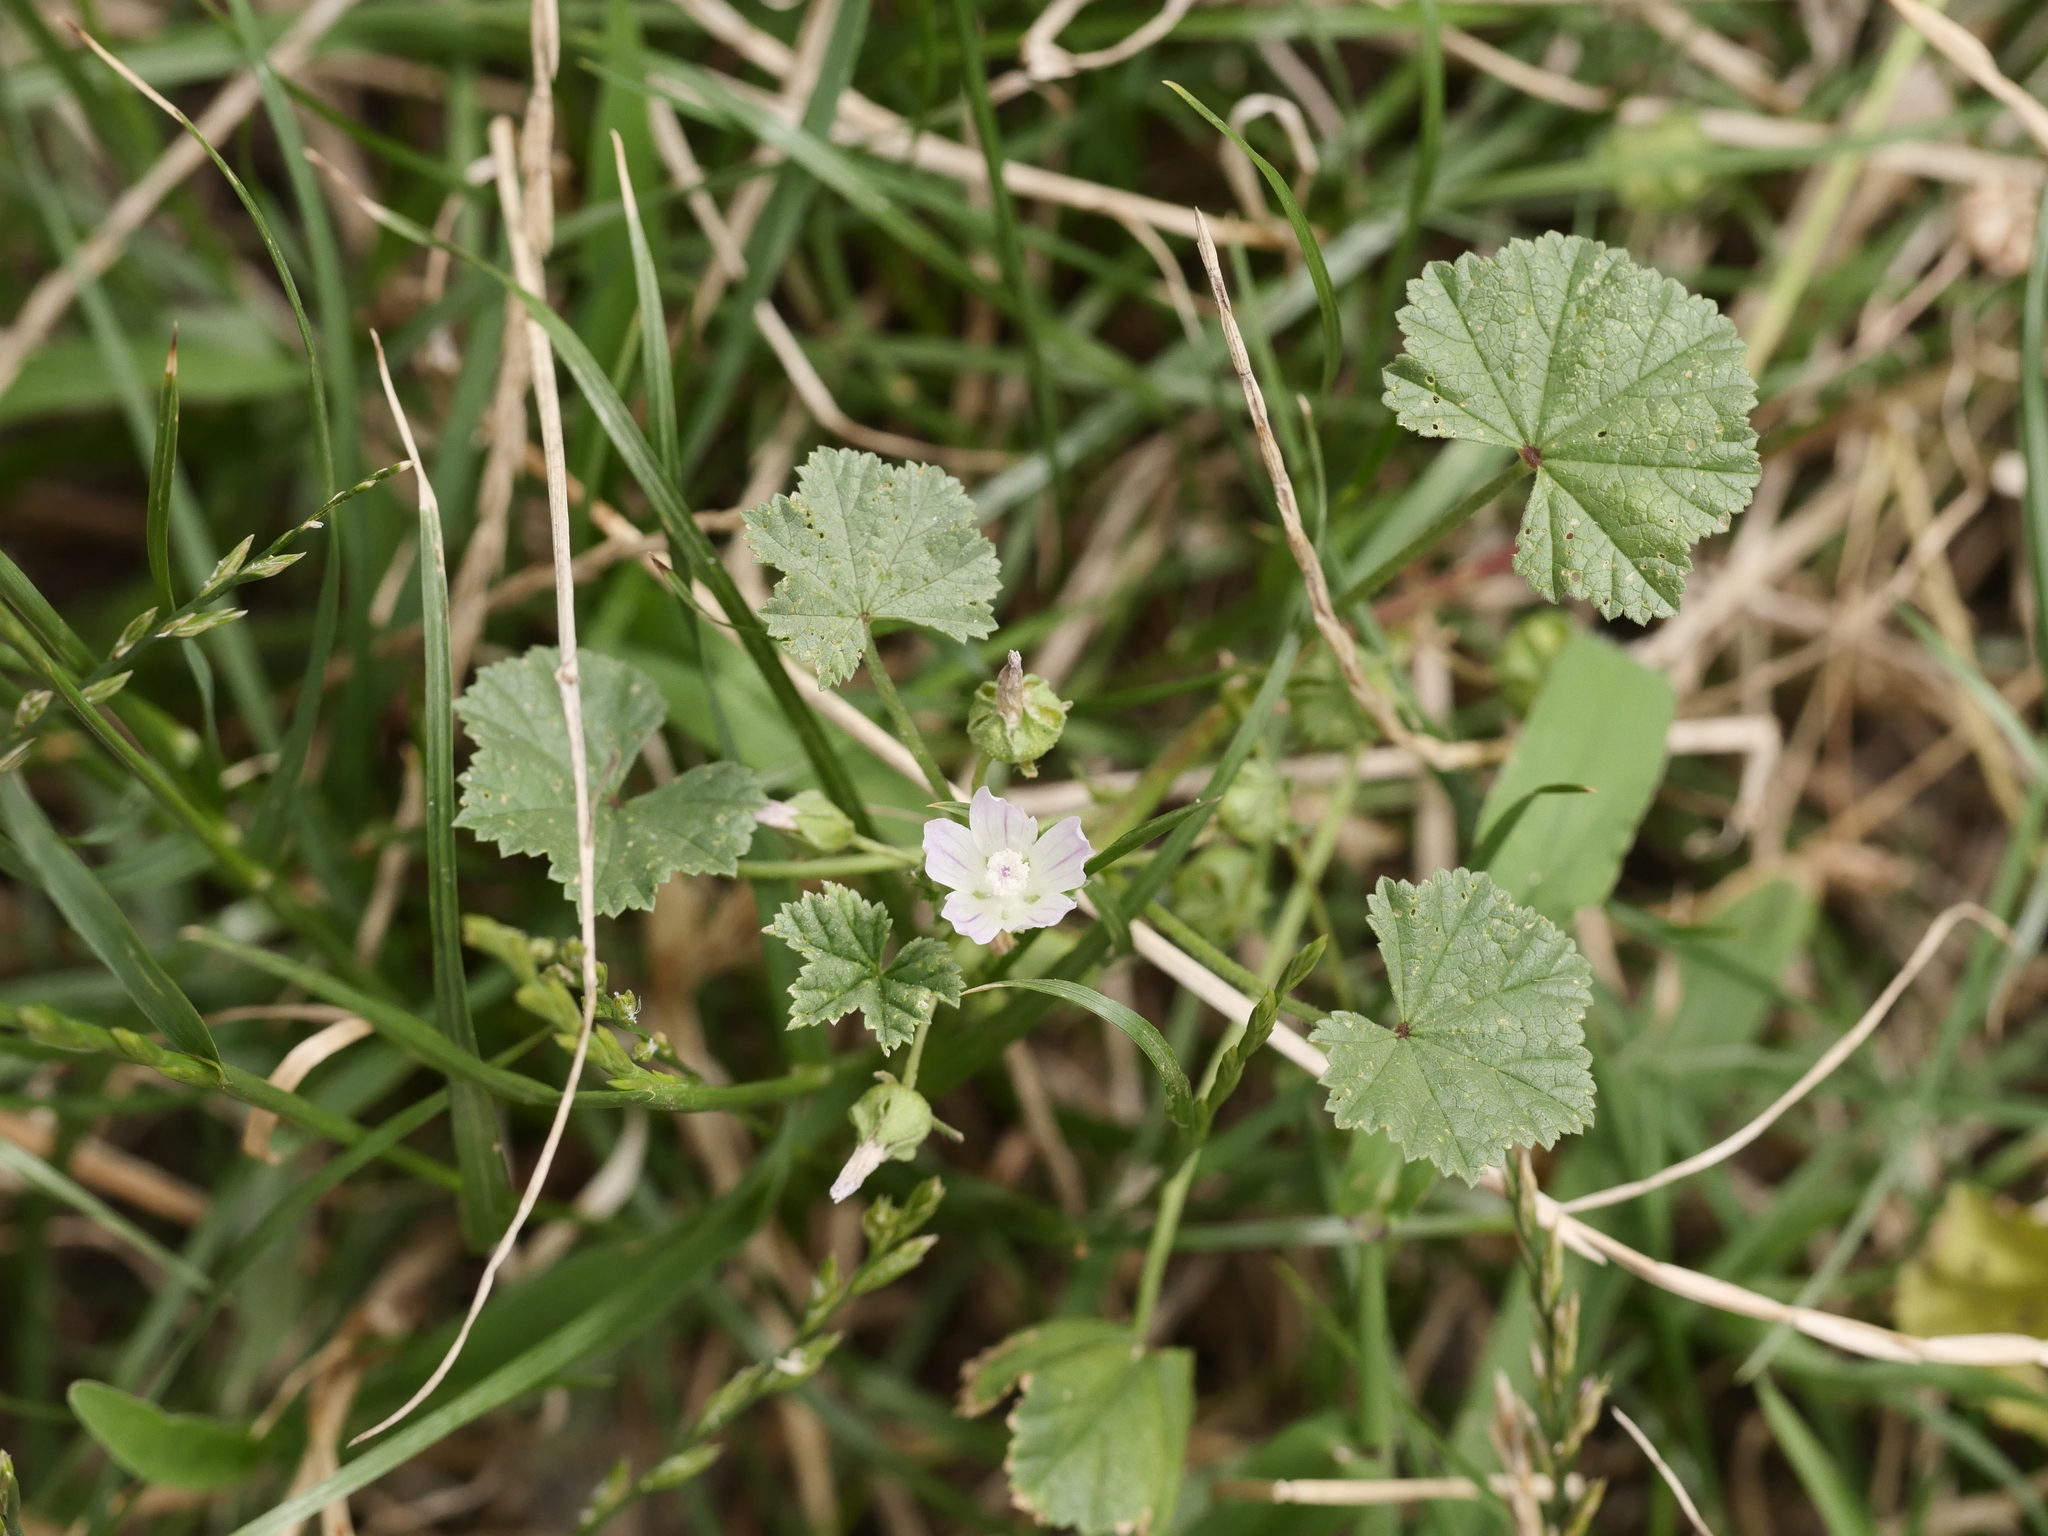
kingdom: Plantae
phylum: Tracheophyta
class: Magnoliopsida
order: Malvales
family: Malvaceae
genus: Malva
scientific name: Malva neglecta
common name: Common mallow
